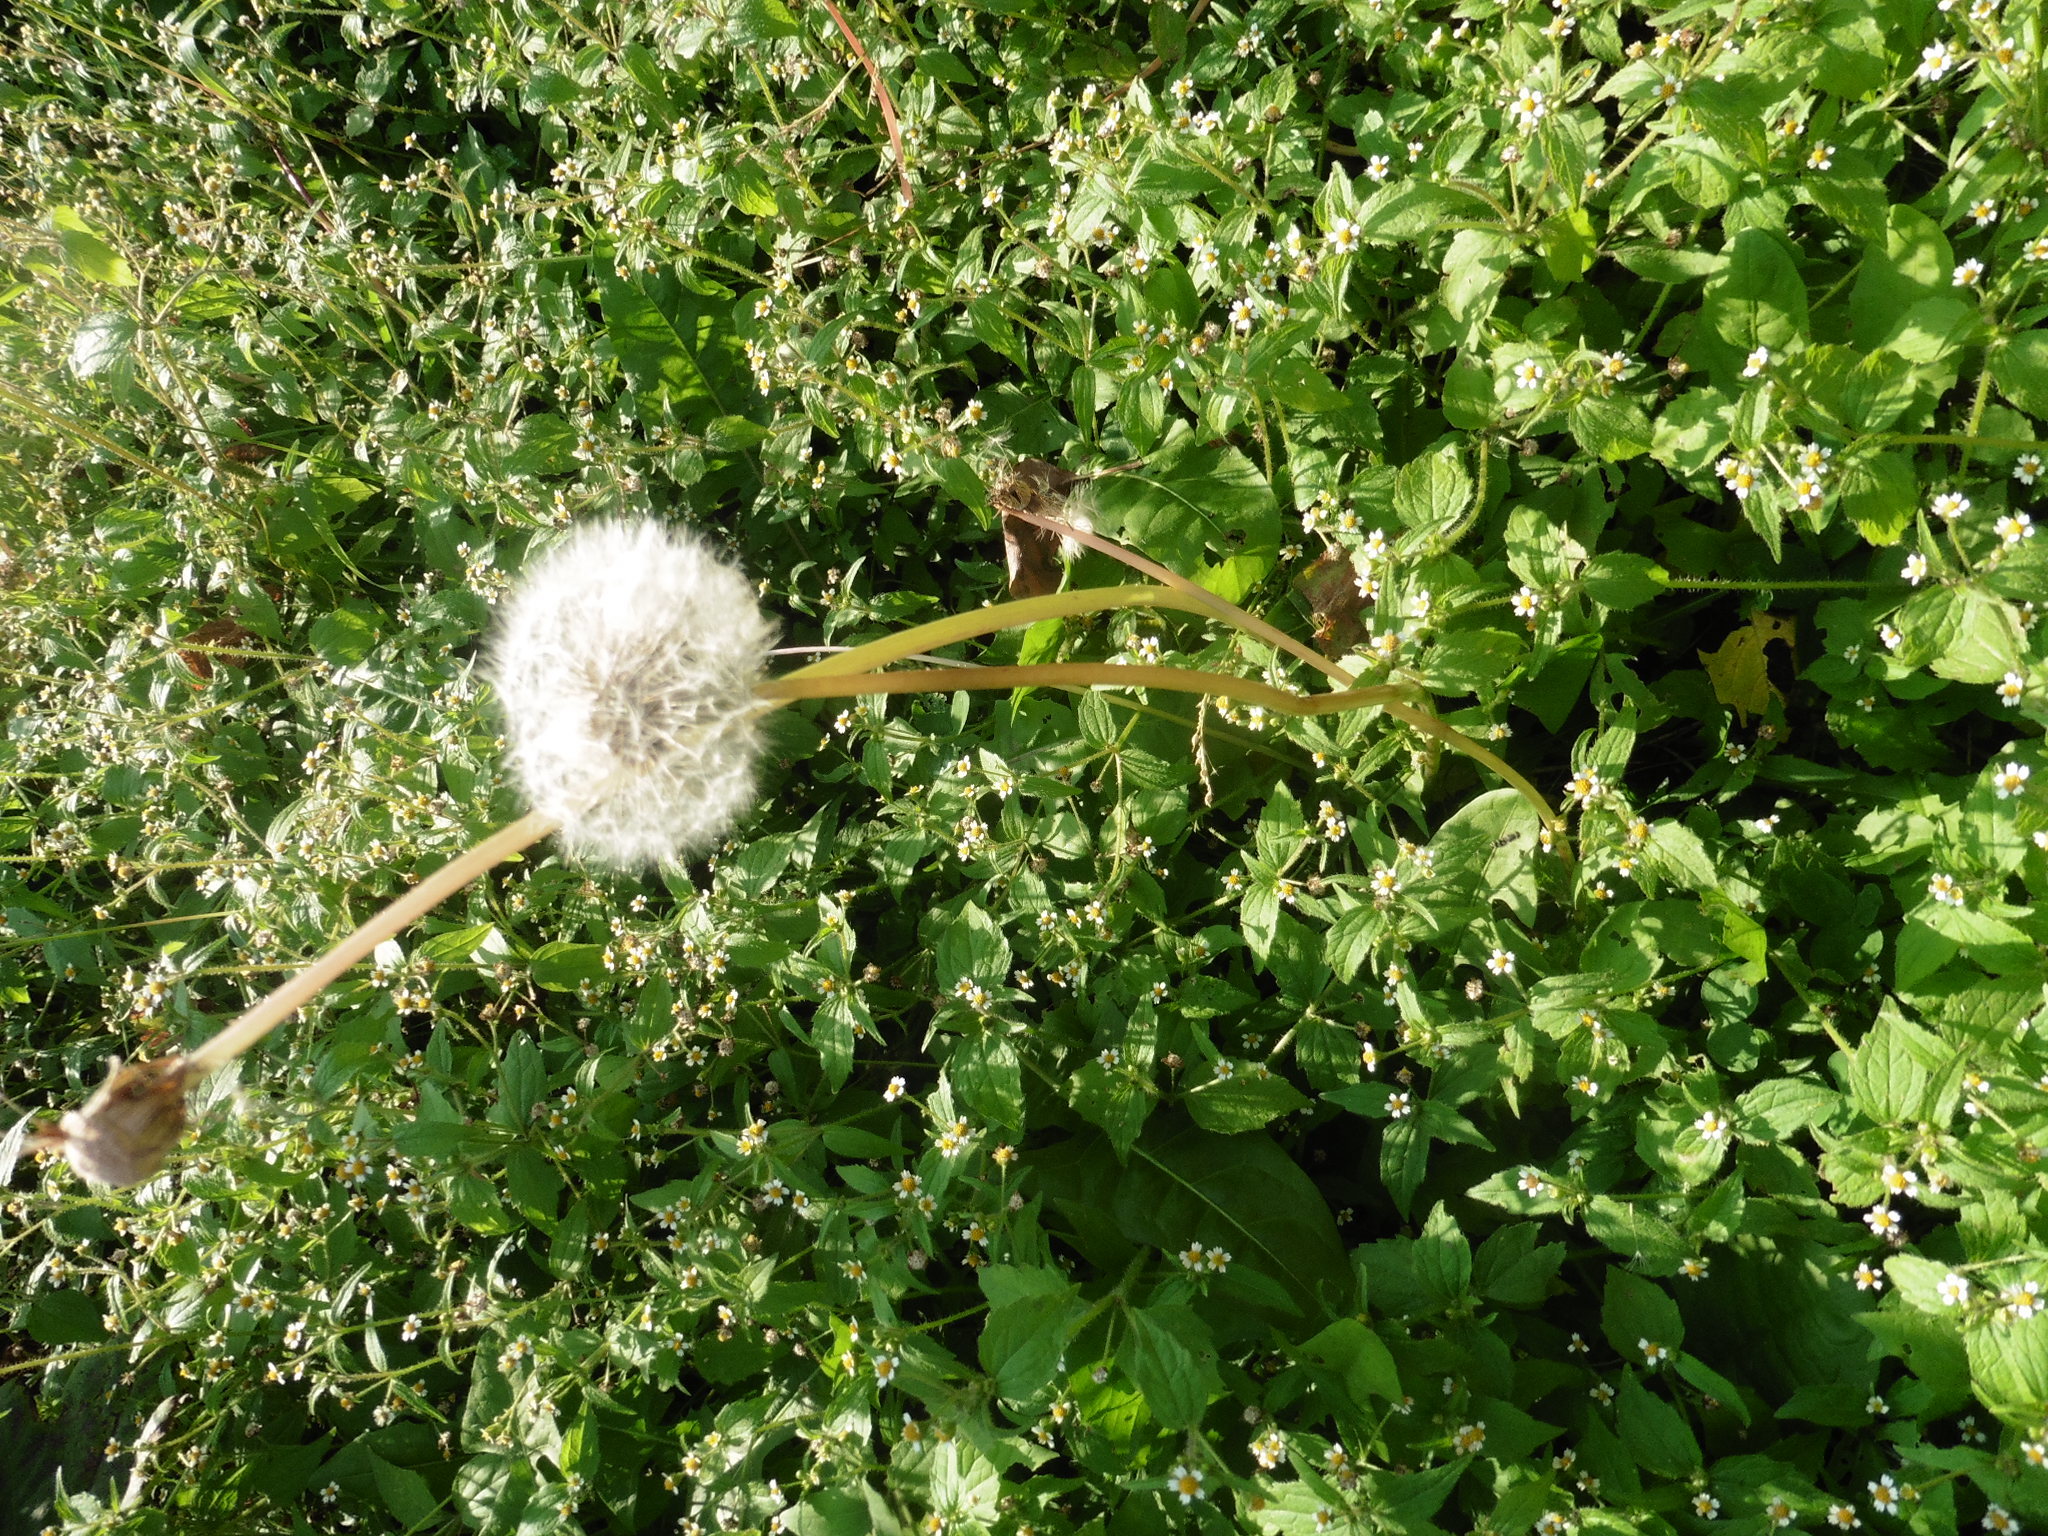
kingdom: Plantae
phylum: Tracheophyta
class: Magnoliopsida
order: Asterales
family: Asteraceae
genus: Taraxacum
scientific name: Taraxacum officinale
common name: Common dandelion
